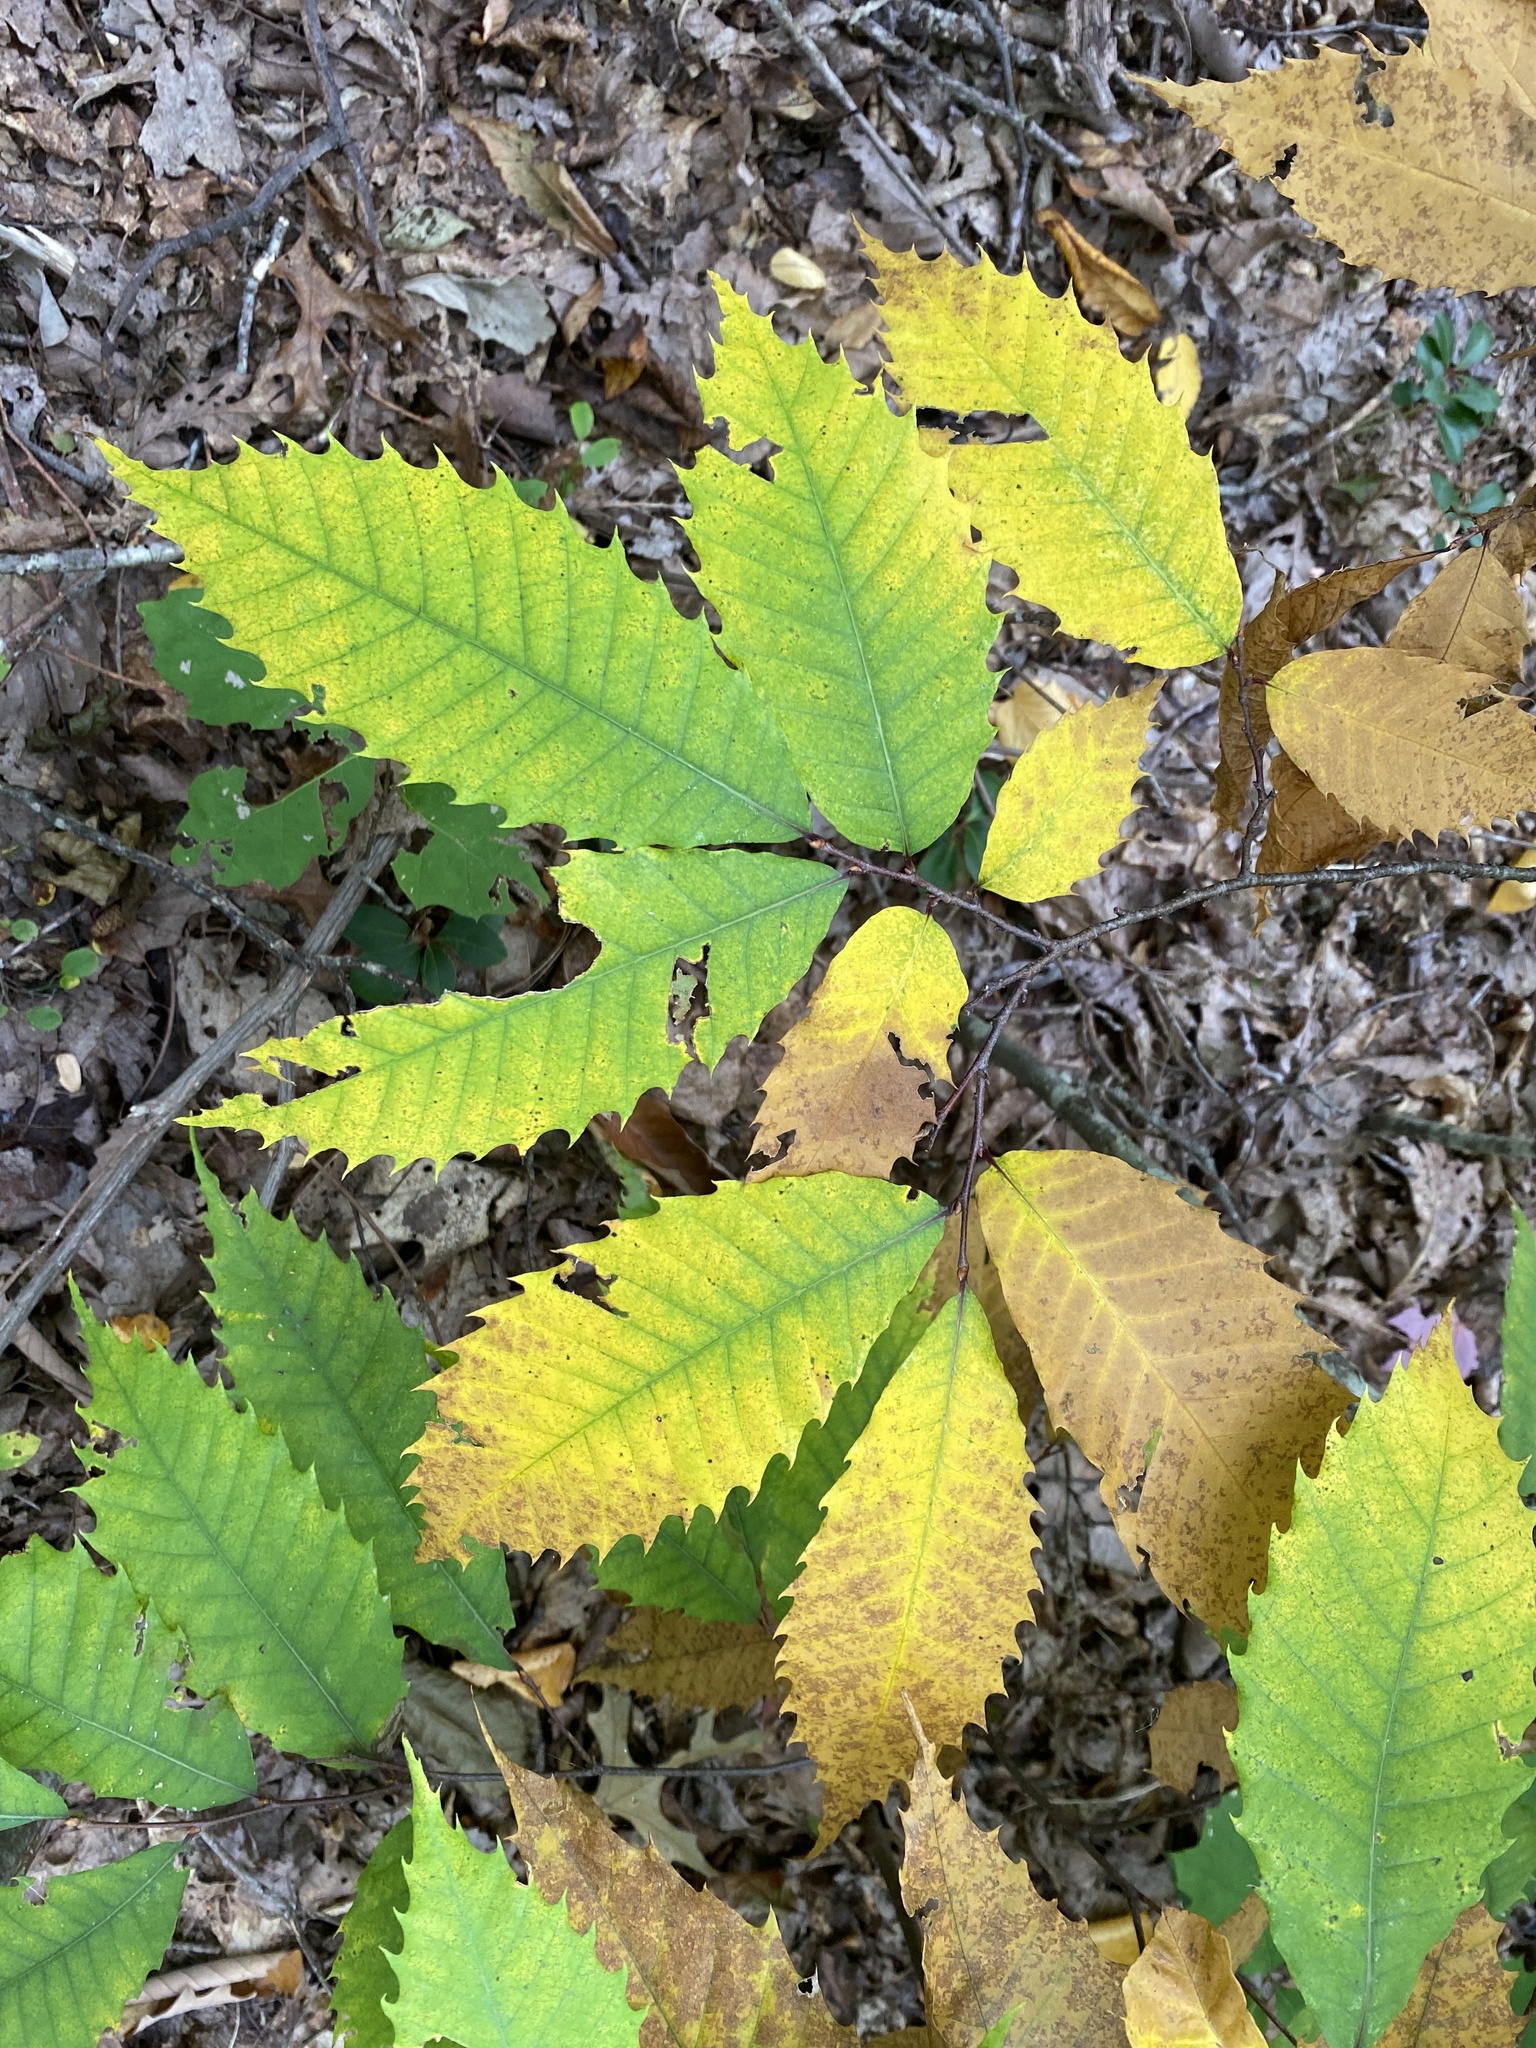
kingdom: Plantae
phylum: Tracheophyta
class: Magnoliopsida
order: Fagales
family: Fagaceae
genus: Castanea
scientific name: Castanea dentata
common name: American chestnut
